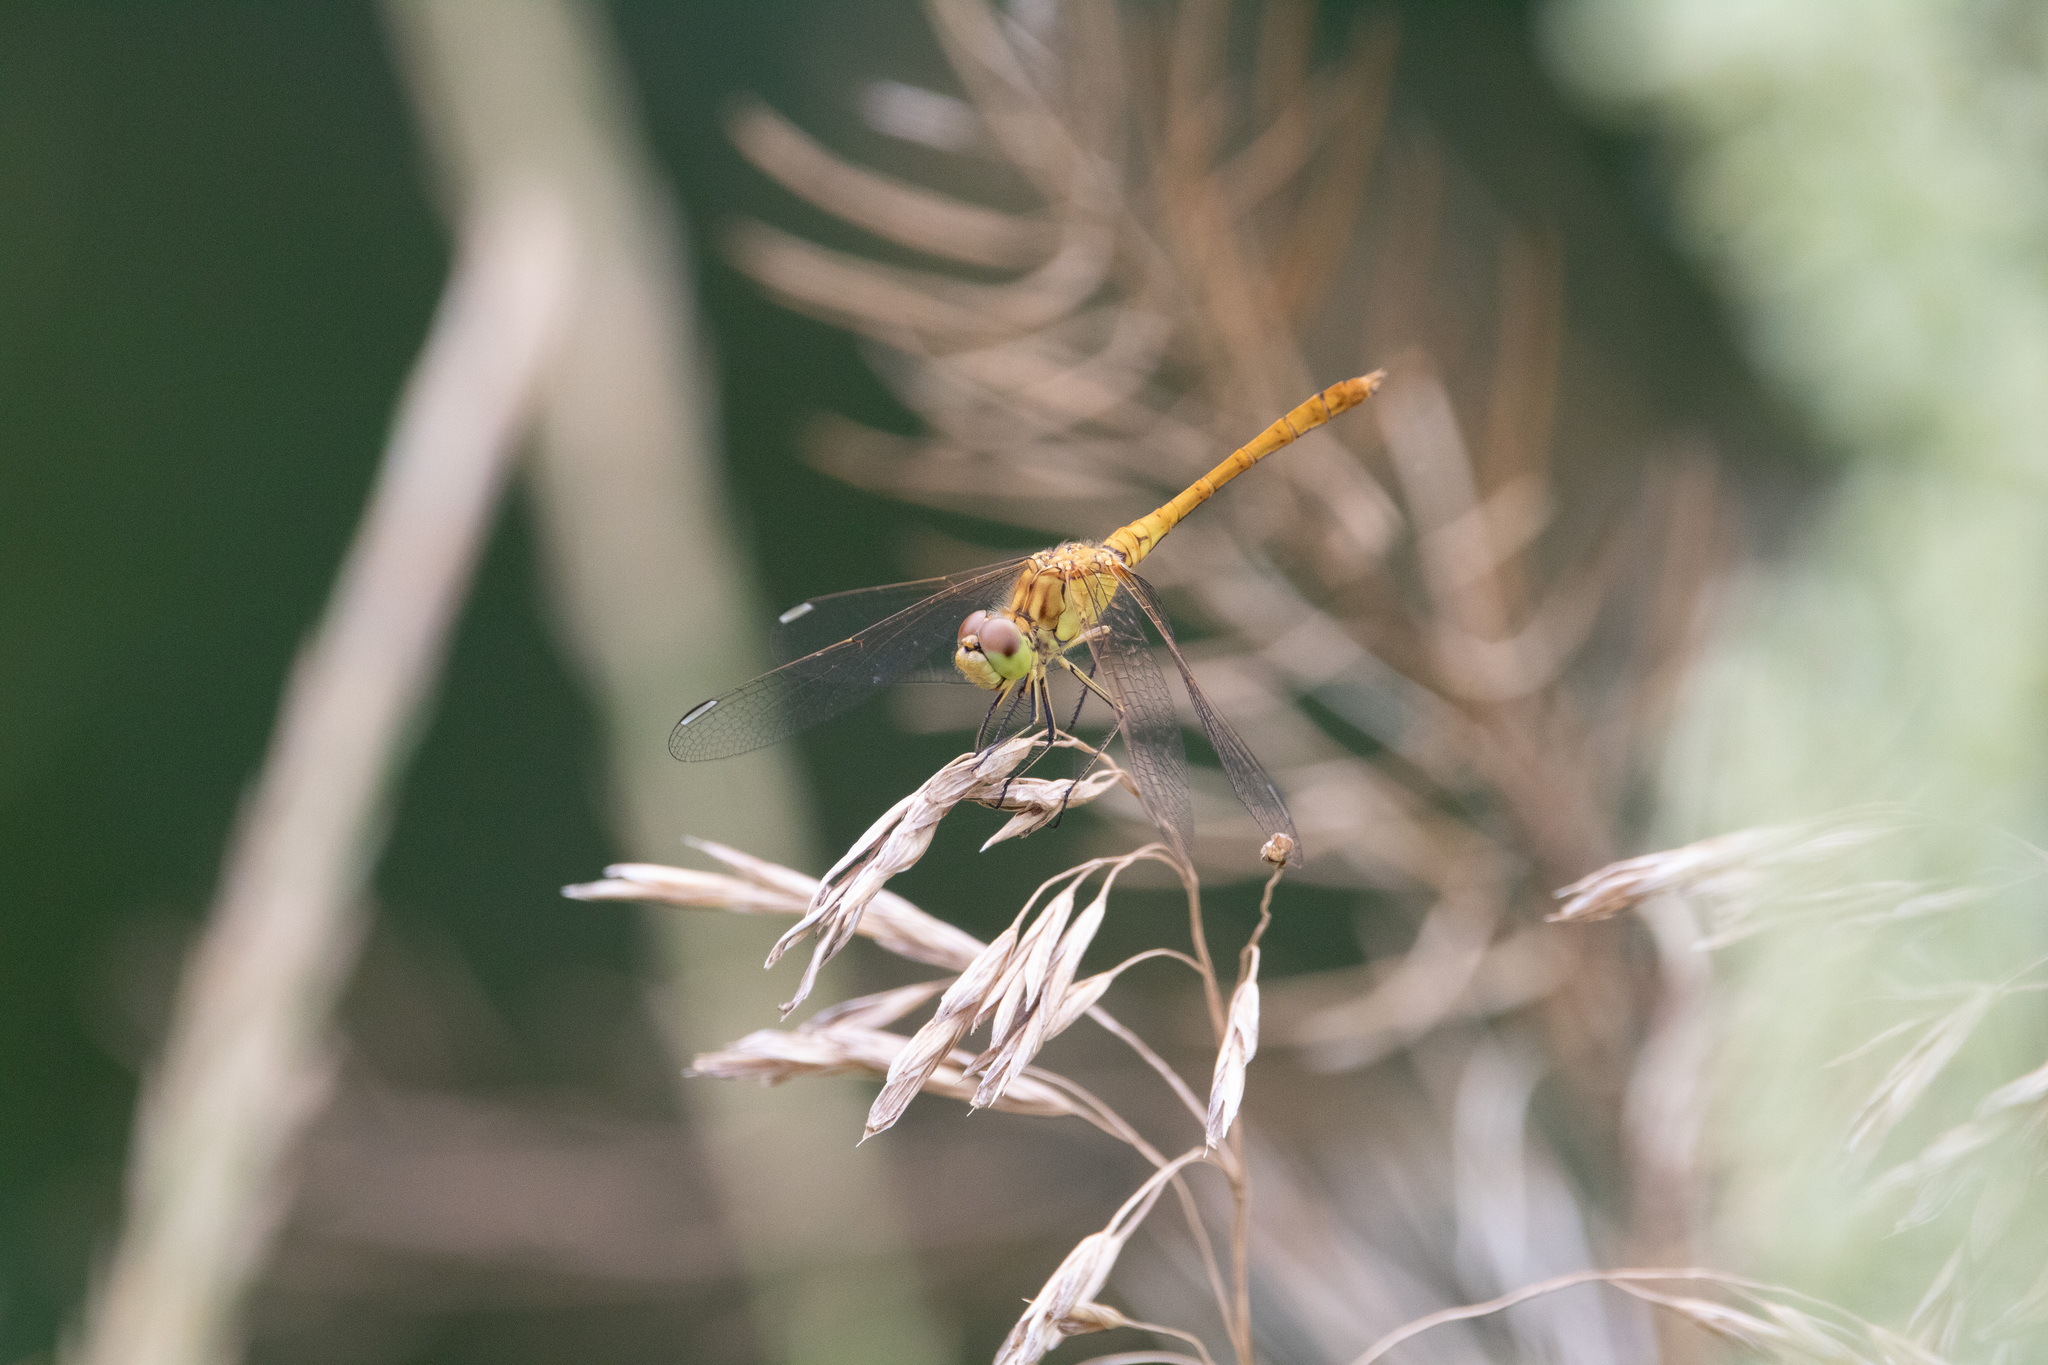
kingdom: Animalia
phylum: Arthropoda
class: Insecta
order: Odonata
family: Libellulidae
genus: Sympetrum
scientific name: Sympetrum meridionale
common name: Southern darter
